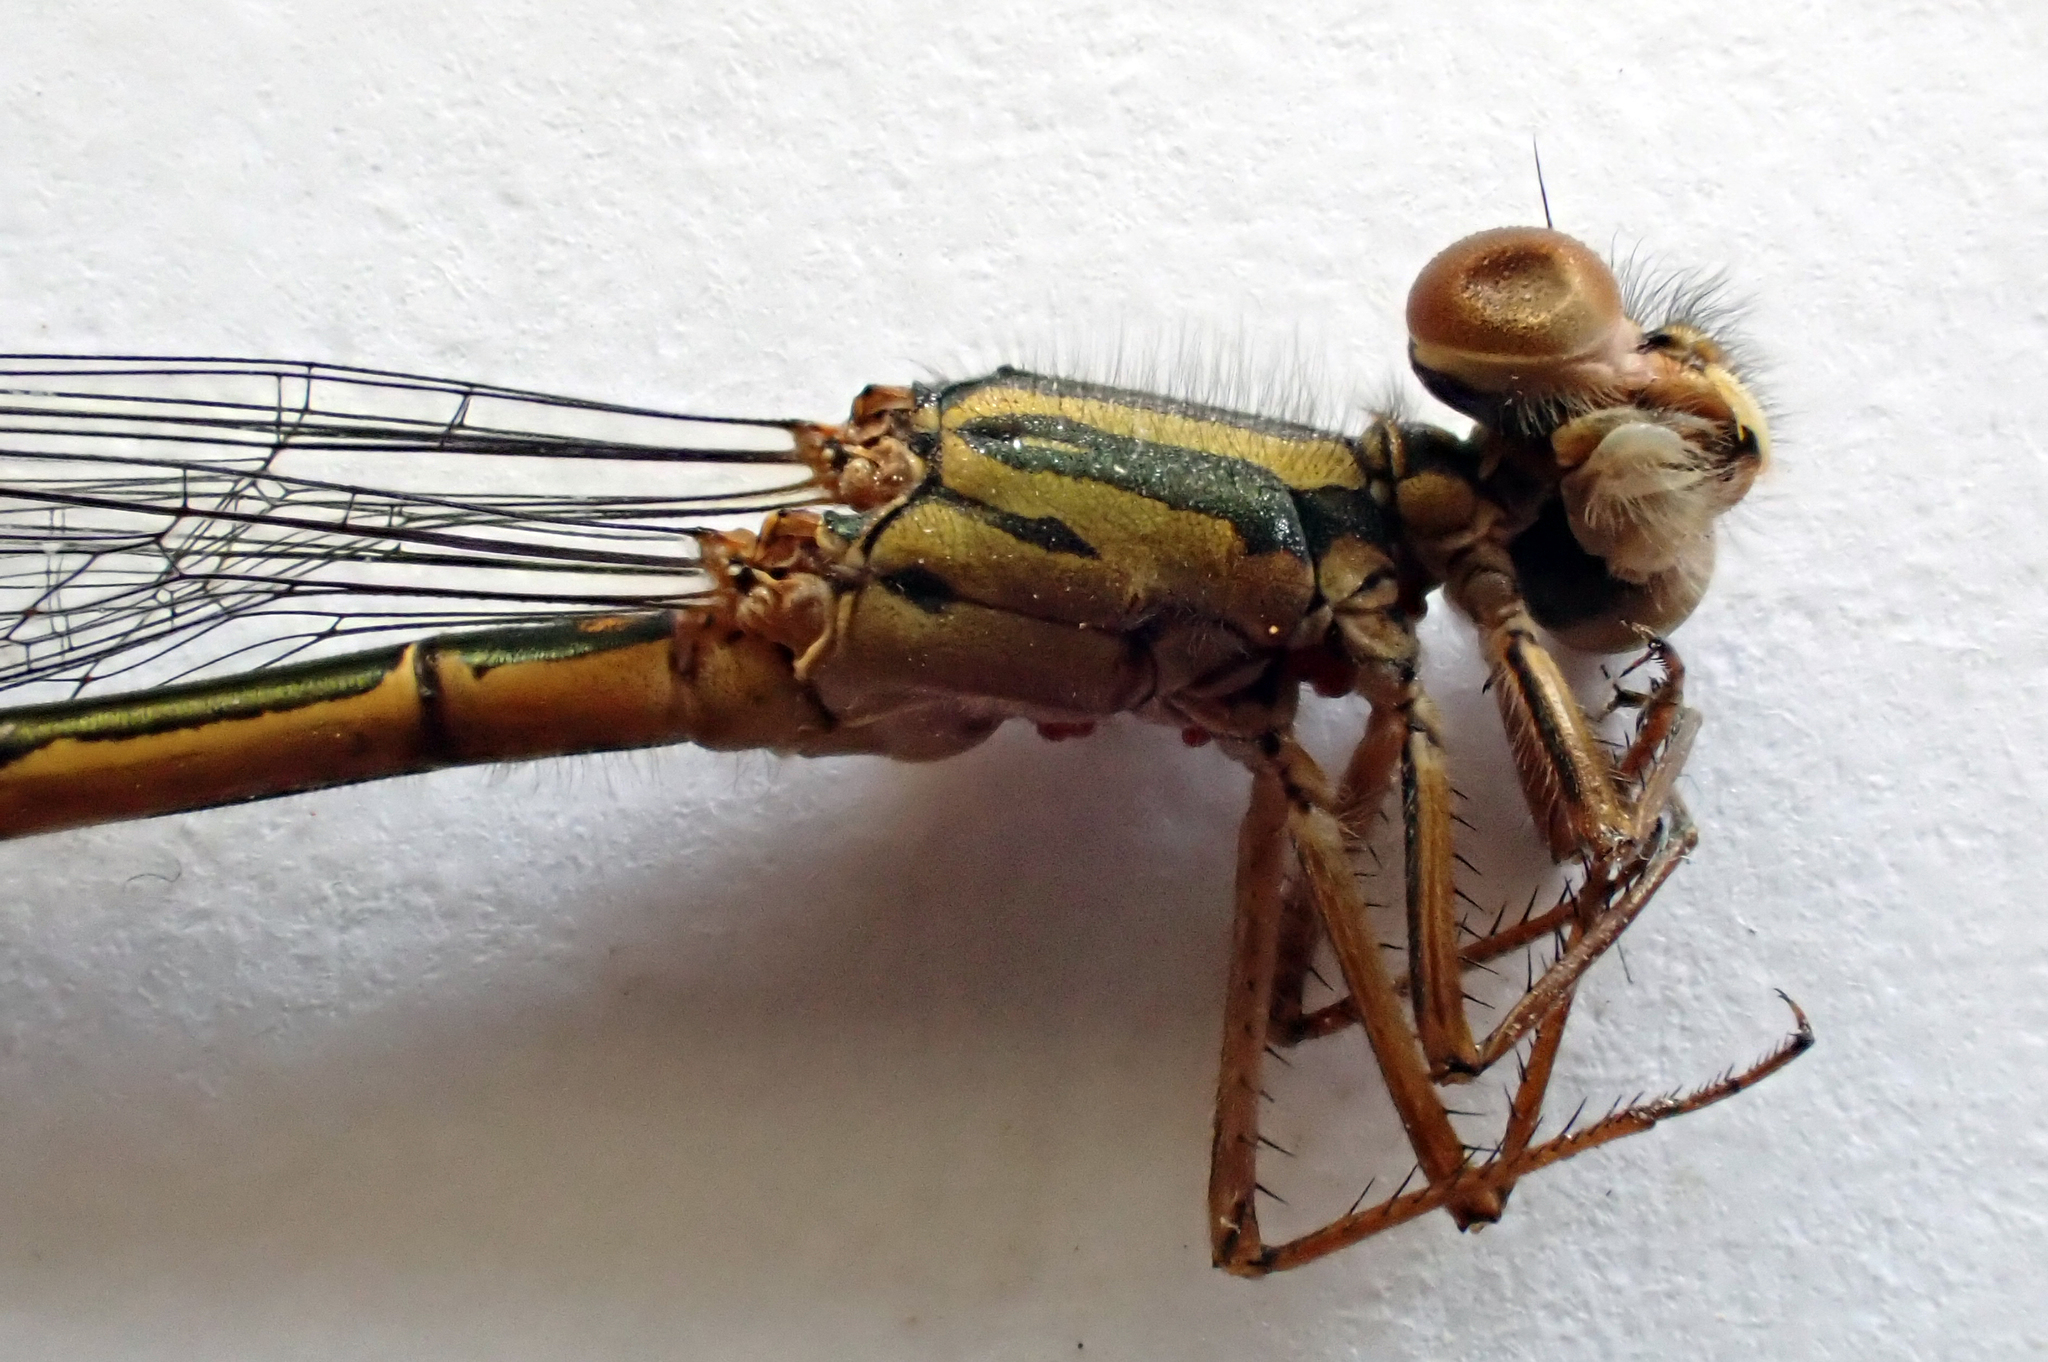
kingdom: Animalia
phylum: Arthropoda
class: Insecta
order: Odonata
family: Coenagrionidae
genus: Xanthocnemis
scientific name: Xanthocnemis tuanuii
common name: Chatham redcoat damselfly
